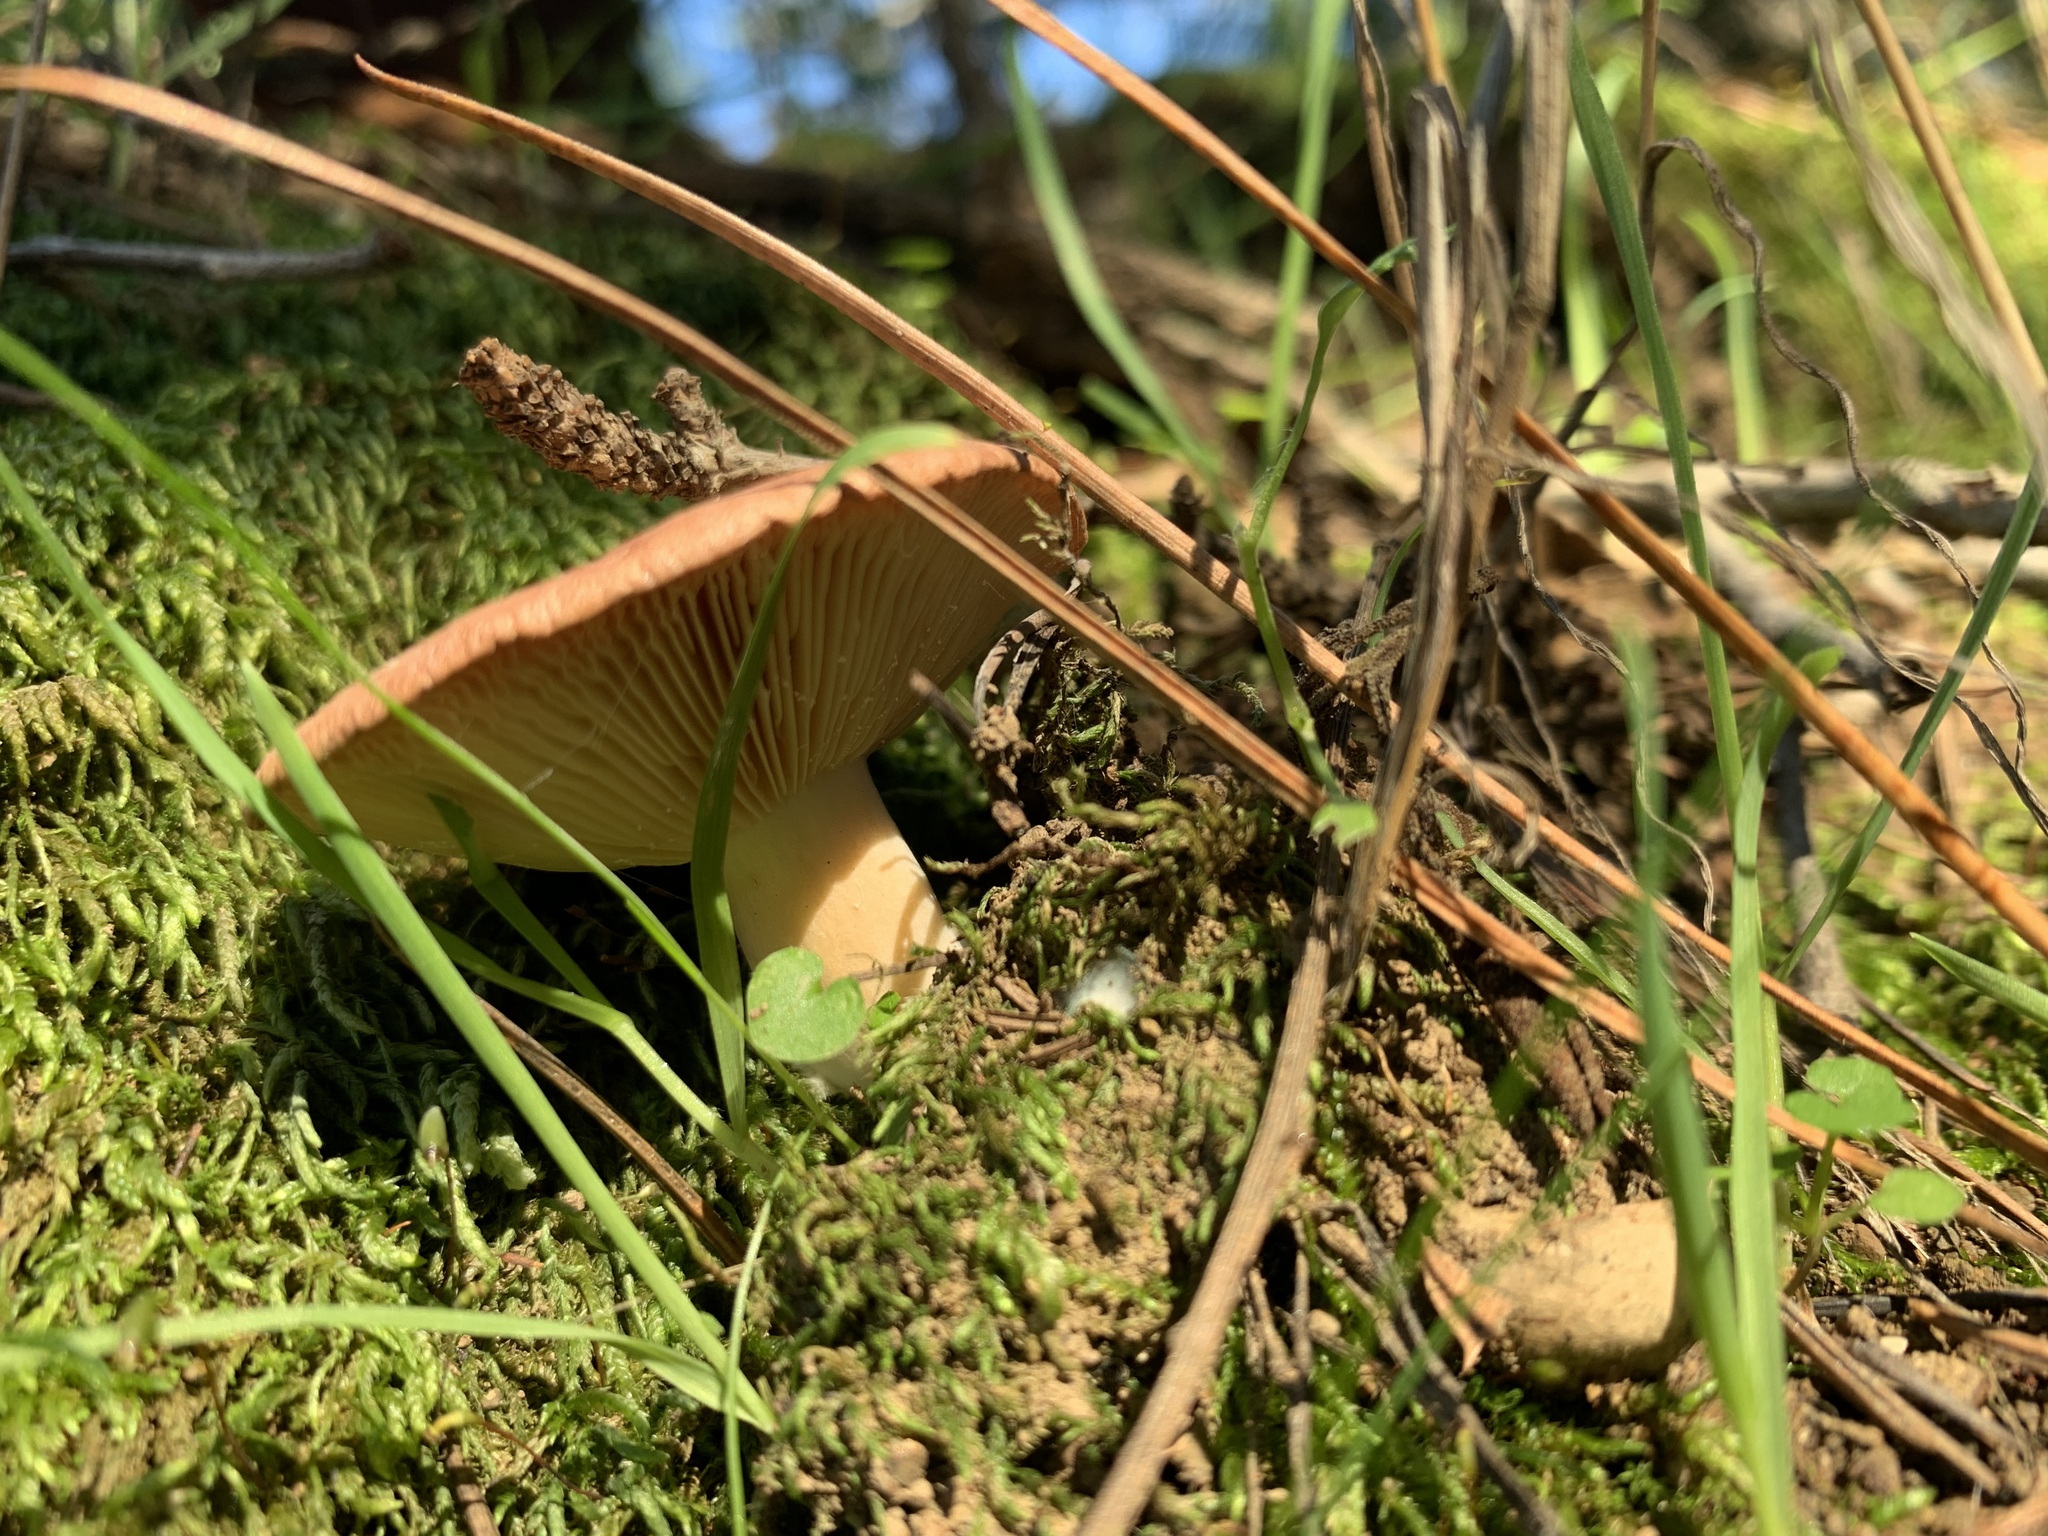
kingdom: Fungi
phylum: Basidiomycota
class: Agaricomycetes
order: Russulales
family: Russulaceae
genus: Lactarius
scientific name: Lactarius xanthogalactus
